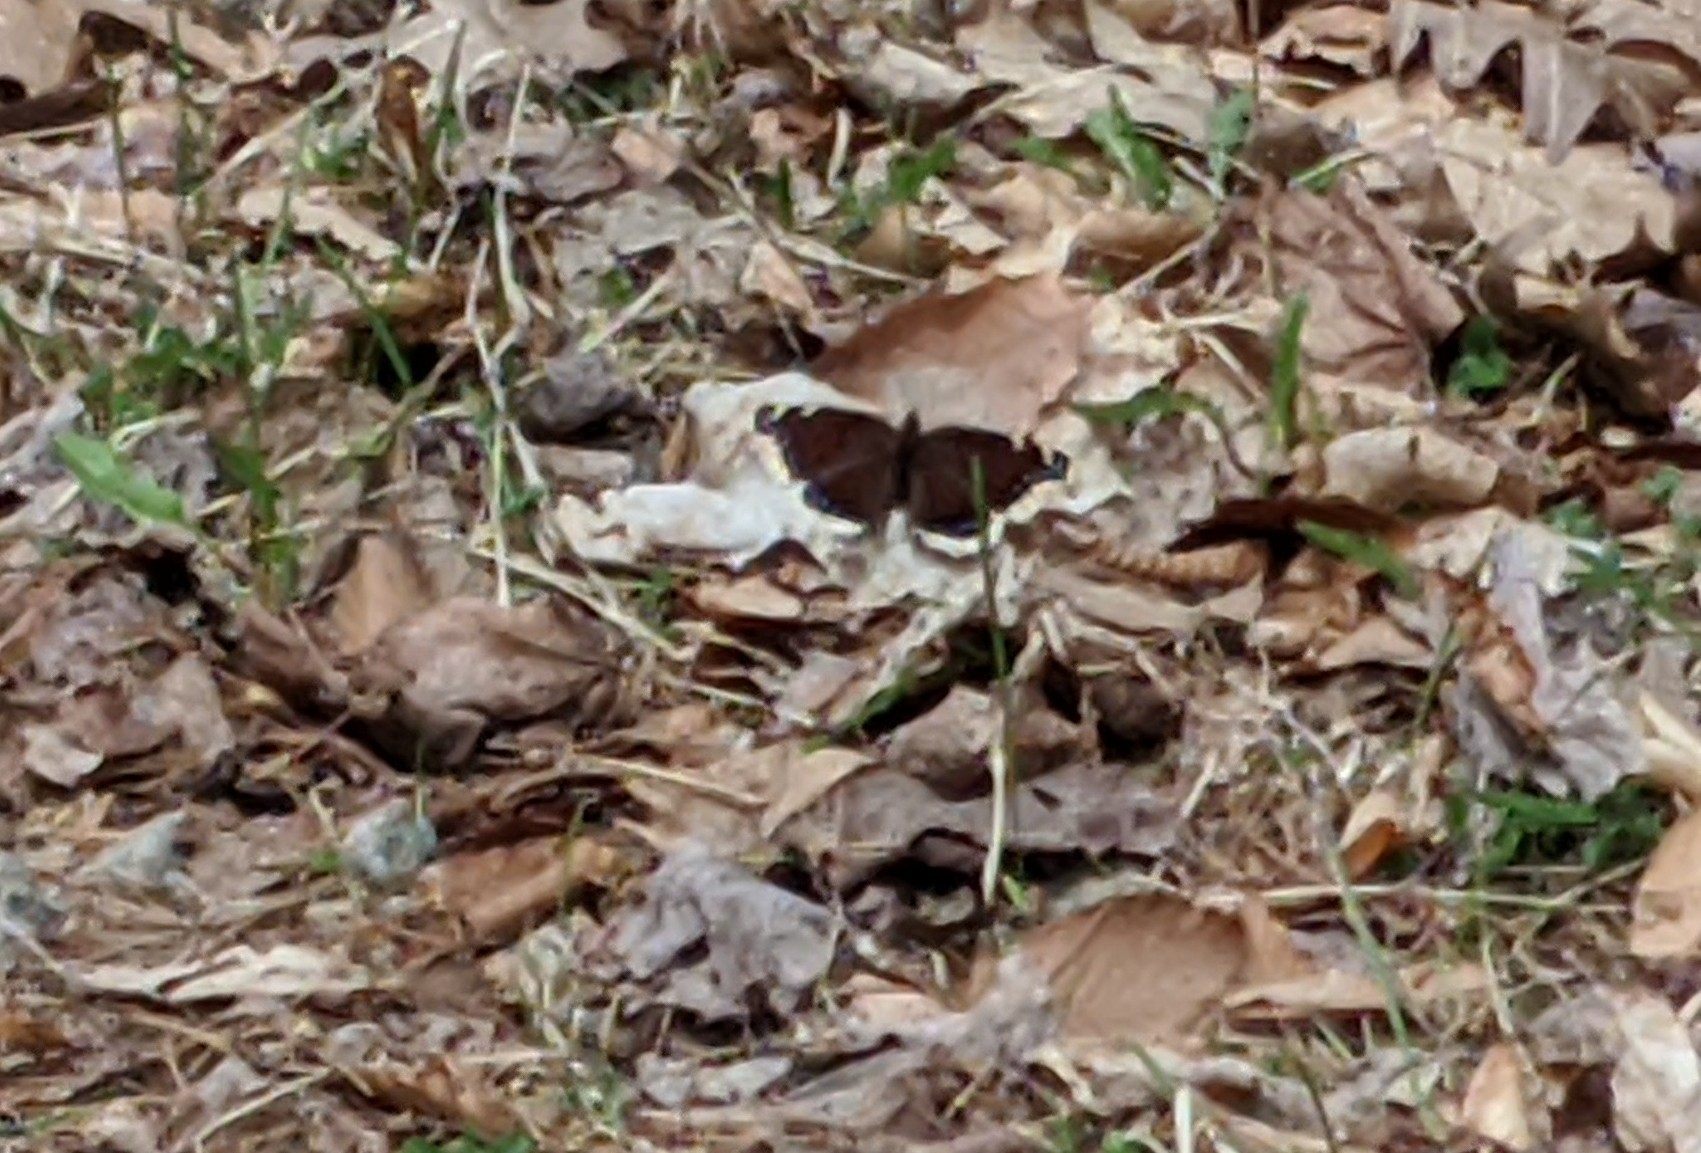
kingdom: Animalia
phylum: Arthropoda
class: Insecta
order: Lepidoptera
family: Nymphalidae
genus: Nymphalis
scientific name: Nymphalis antiopa
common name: Camberwell beauty
